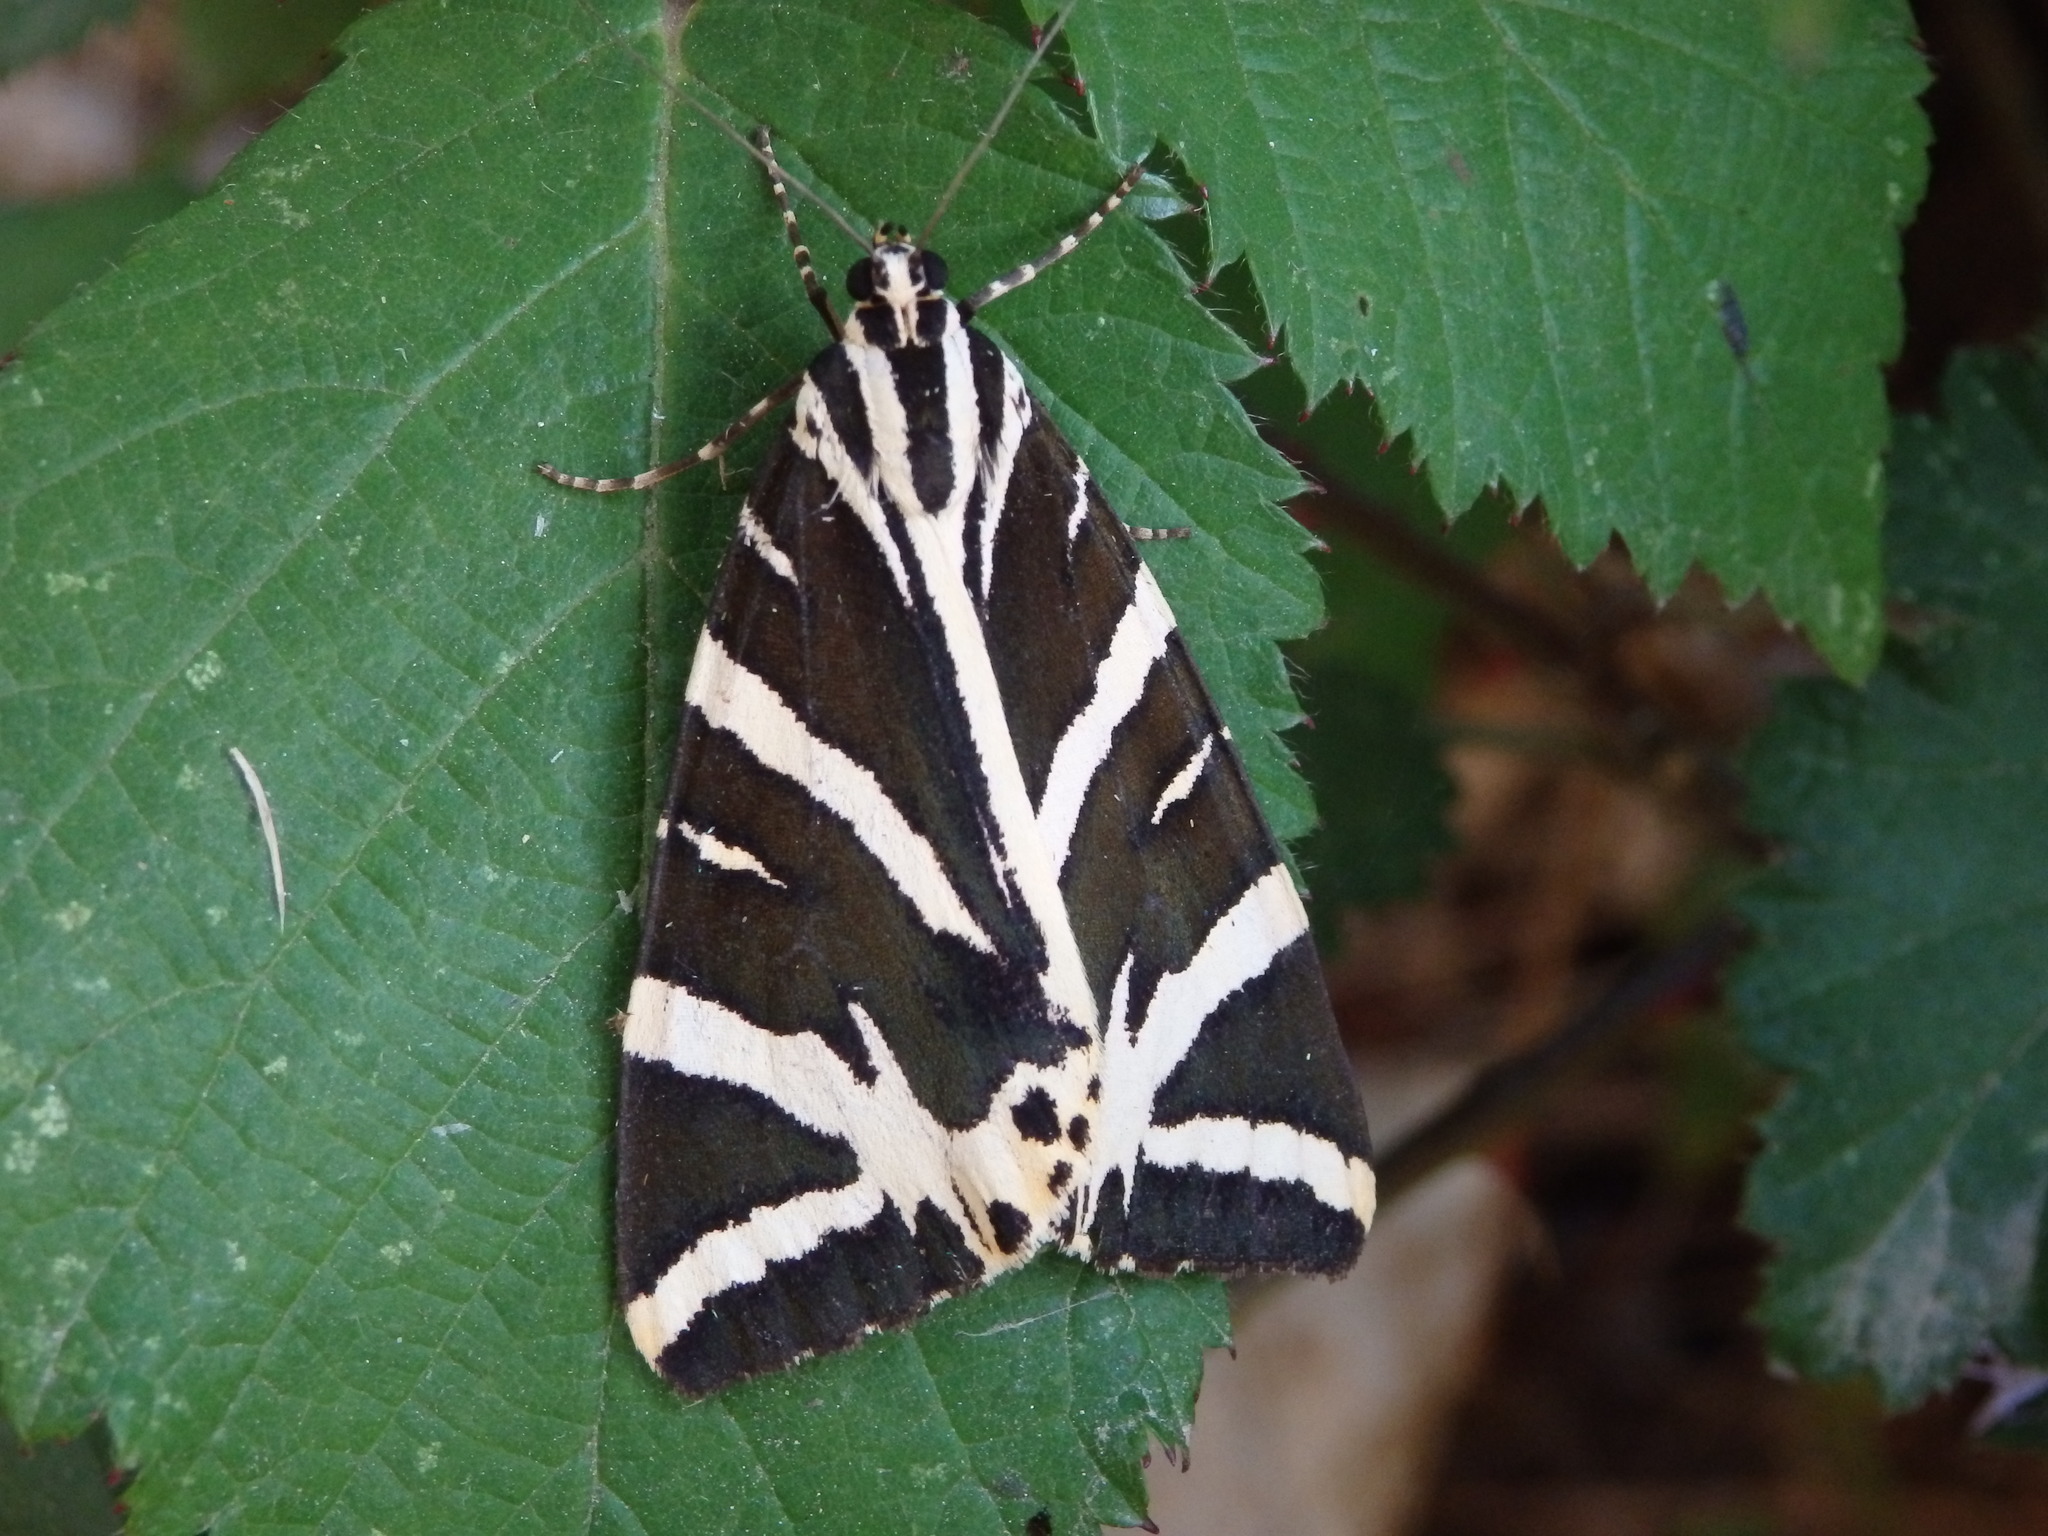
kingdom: Animalia
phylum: Arthropoda
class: Insecta
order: Lepidoptera
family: Erebidae
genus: Euplagia
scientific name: Euplagia quadripunctaria
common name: Jersey tiger
